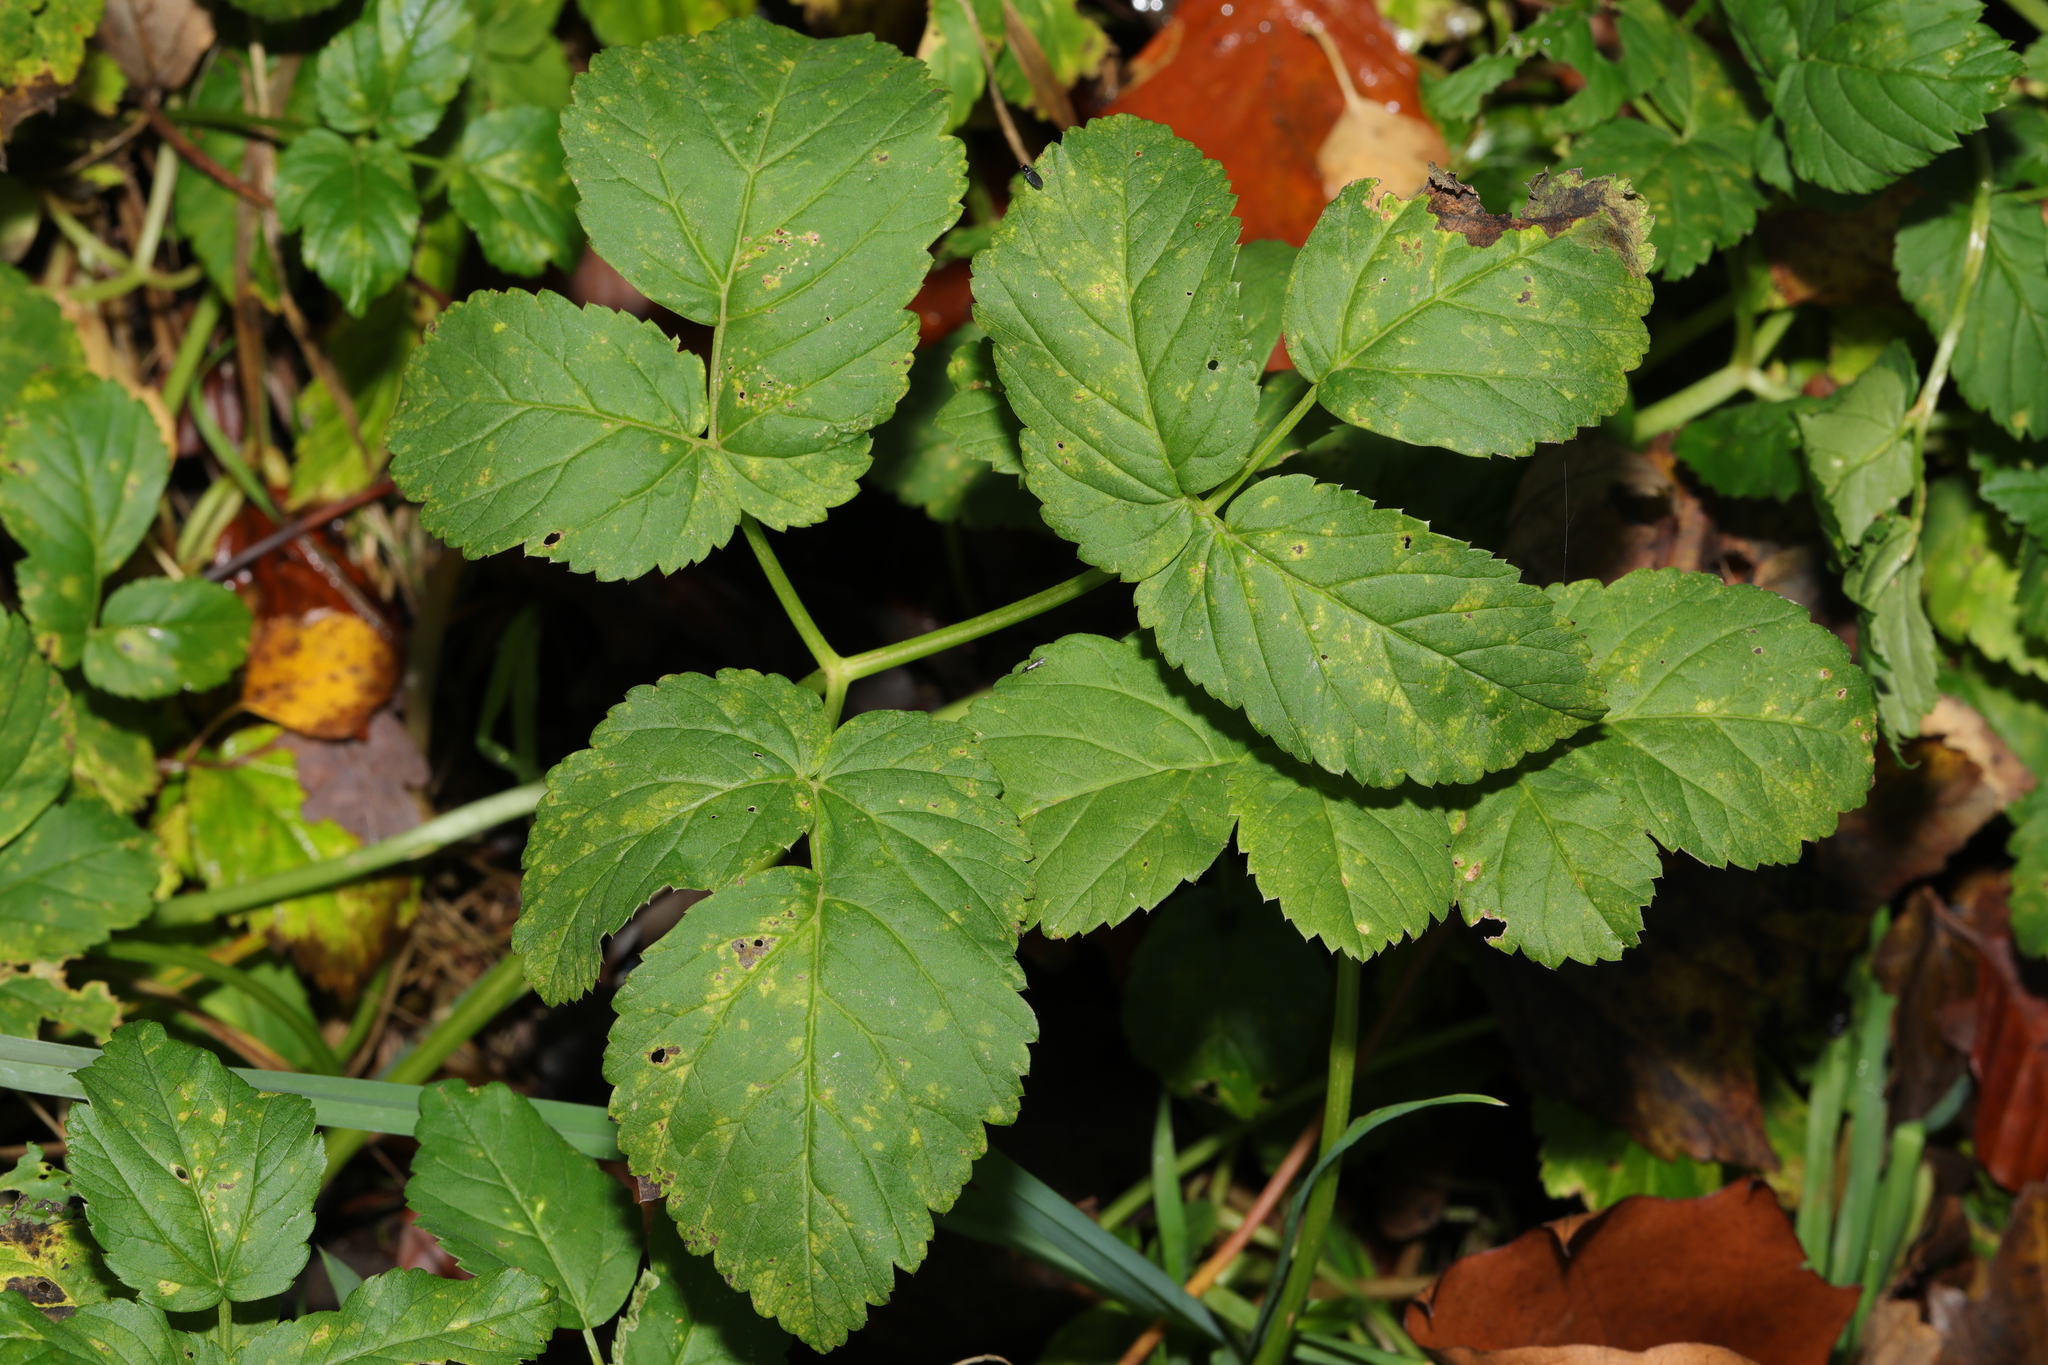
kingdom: Plantae
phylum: Tracheophyta
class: Magnoliopsida
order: Apiales
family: Apiaceae
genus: Aegopodium
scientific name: Aegopodium podagraria
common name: Ground-elder
